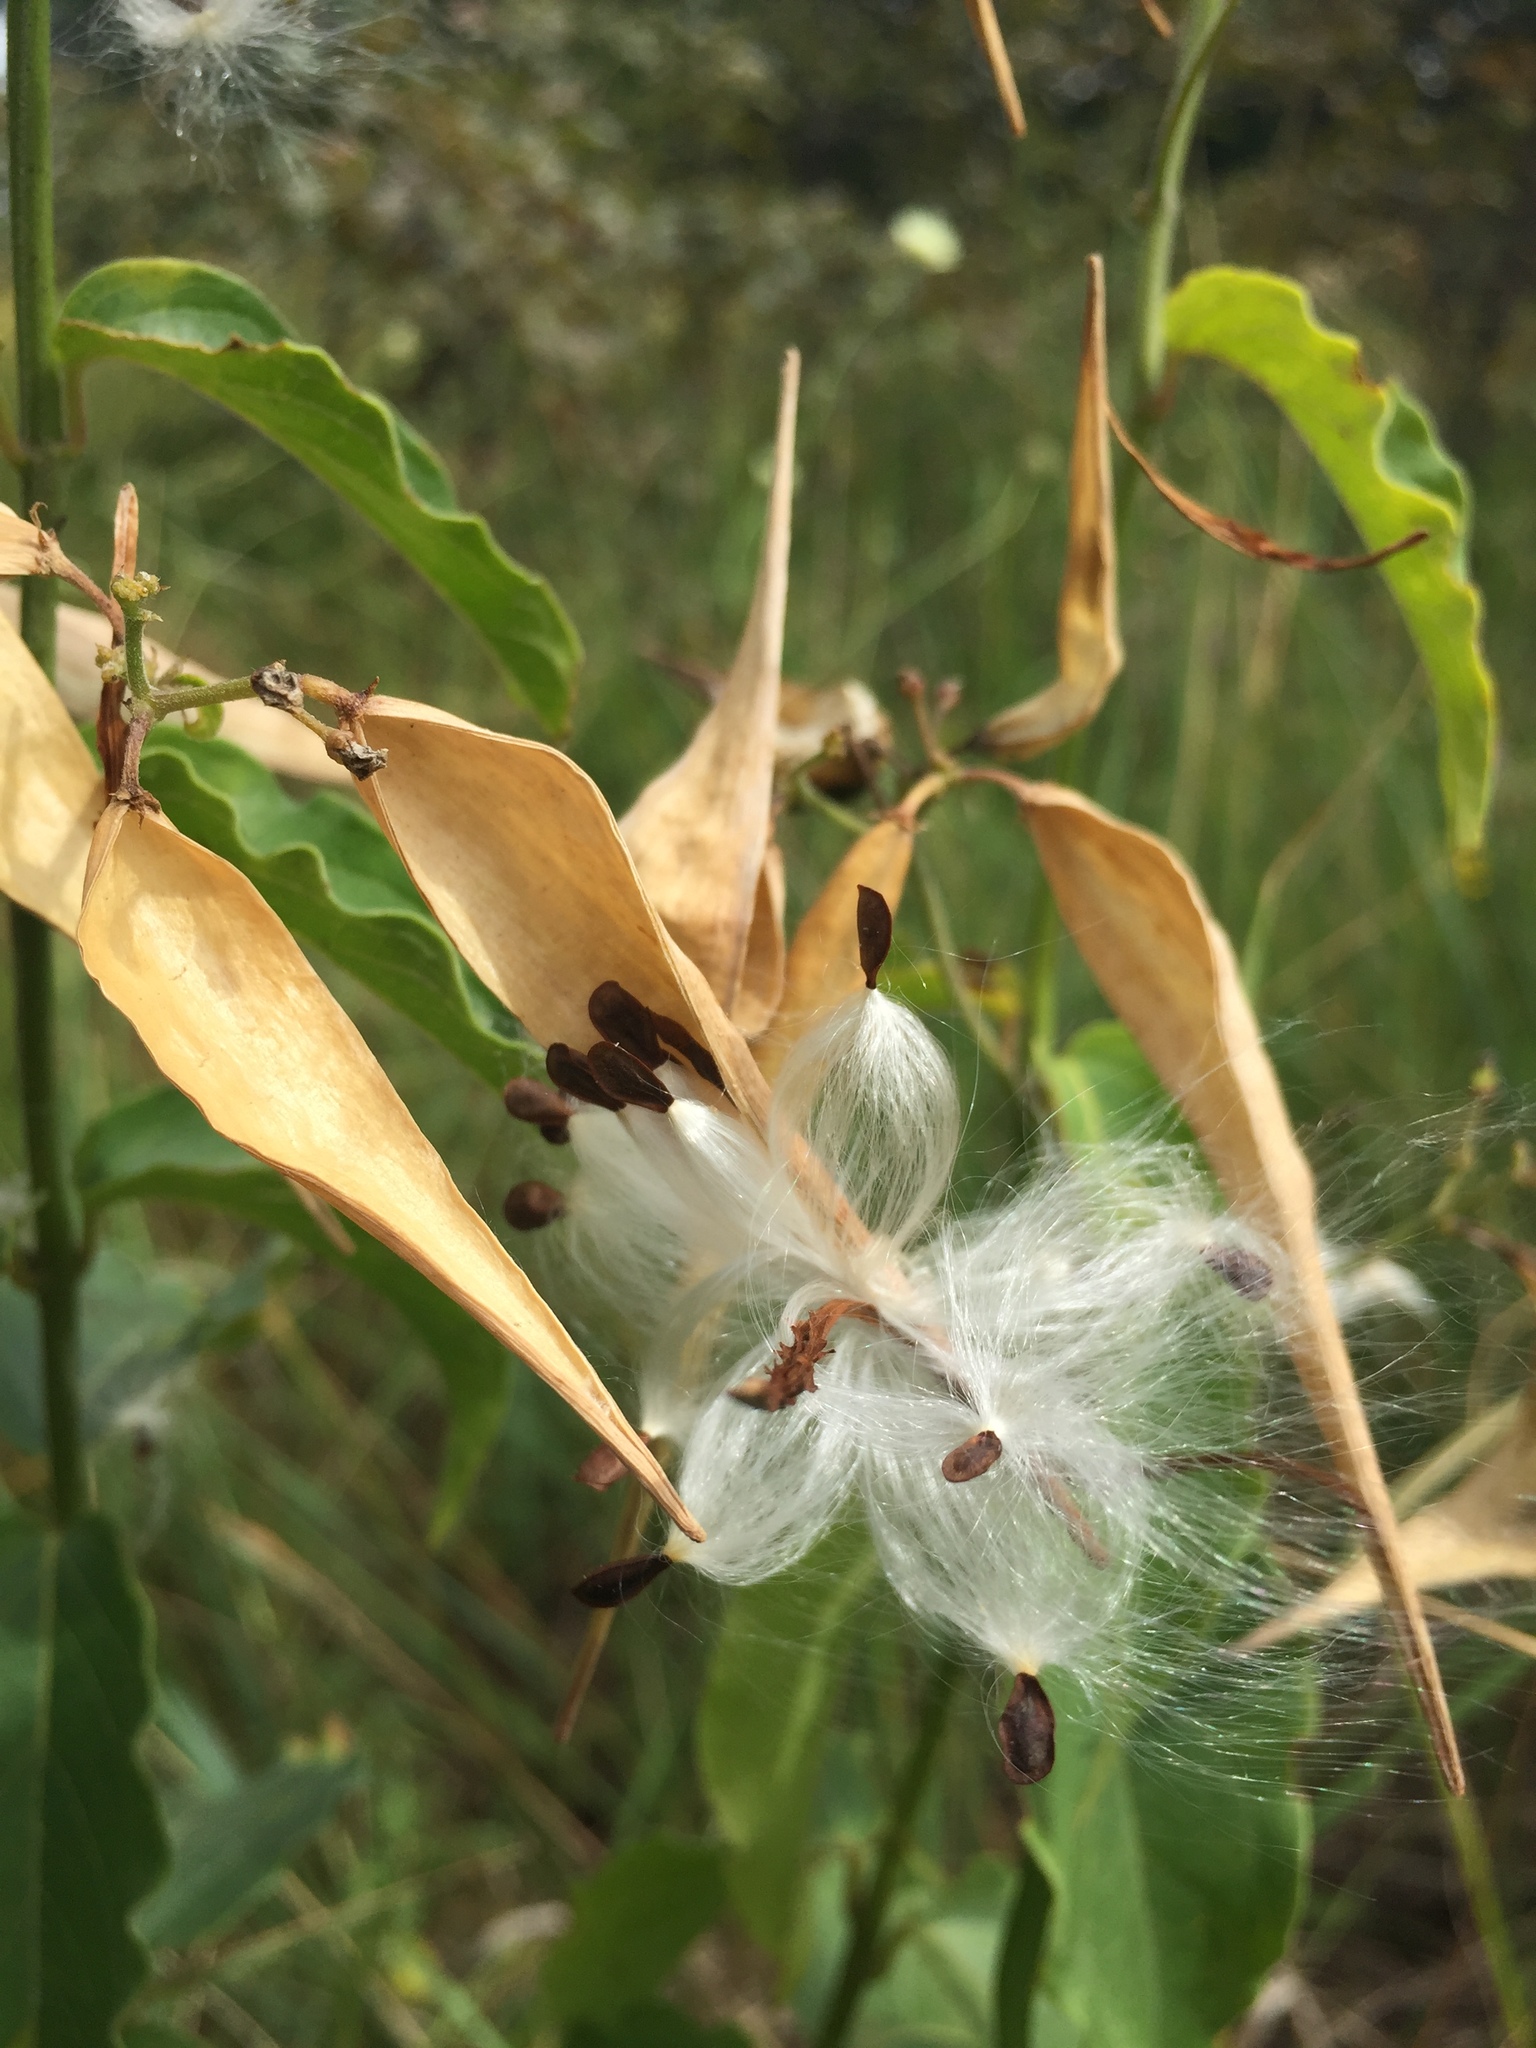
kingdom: Plantae
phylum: Tracheophyta
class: Magnoliopsida
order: Gentianales
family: Apocynaceae
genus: Vincetoxicum
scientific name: Vincetoxicum hirundinaria
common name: White swallowwort
